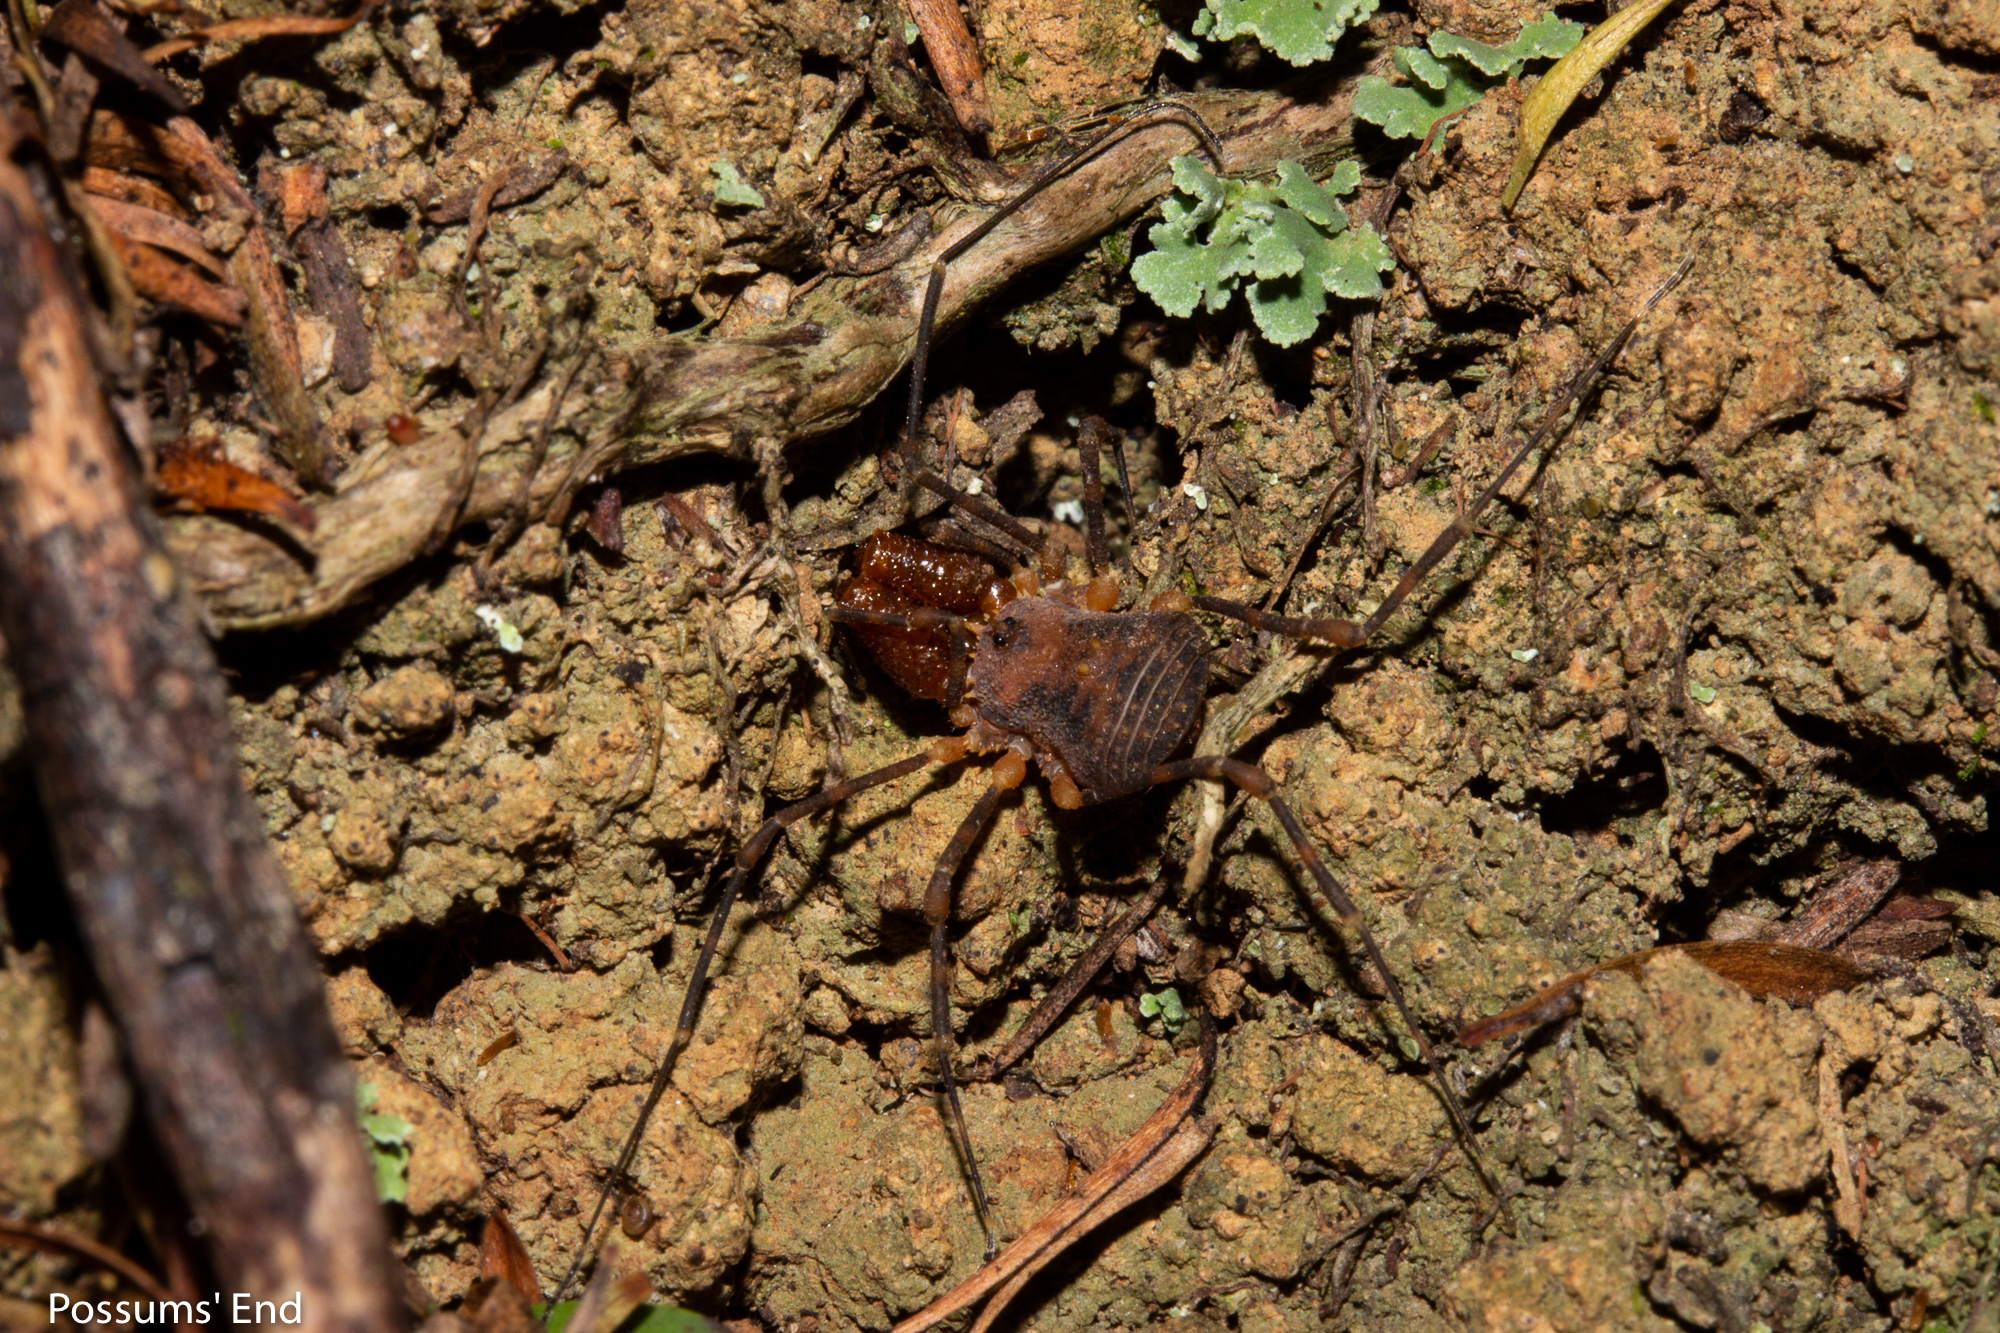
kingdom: Animalia
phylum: Arthropoda
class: Arachnida
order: Opiliones
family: Triaenonychidae
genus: Prasma
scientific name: Prasma sorenseni
